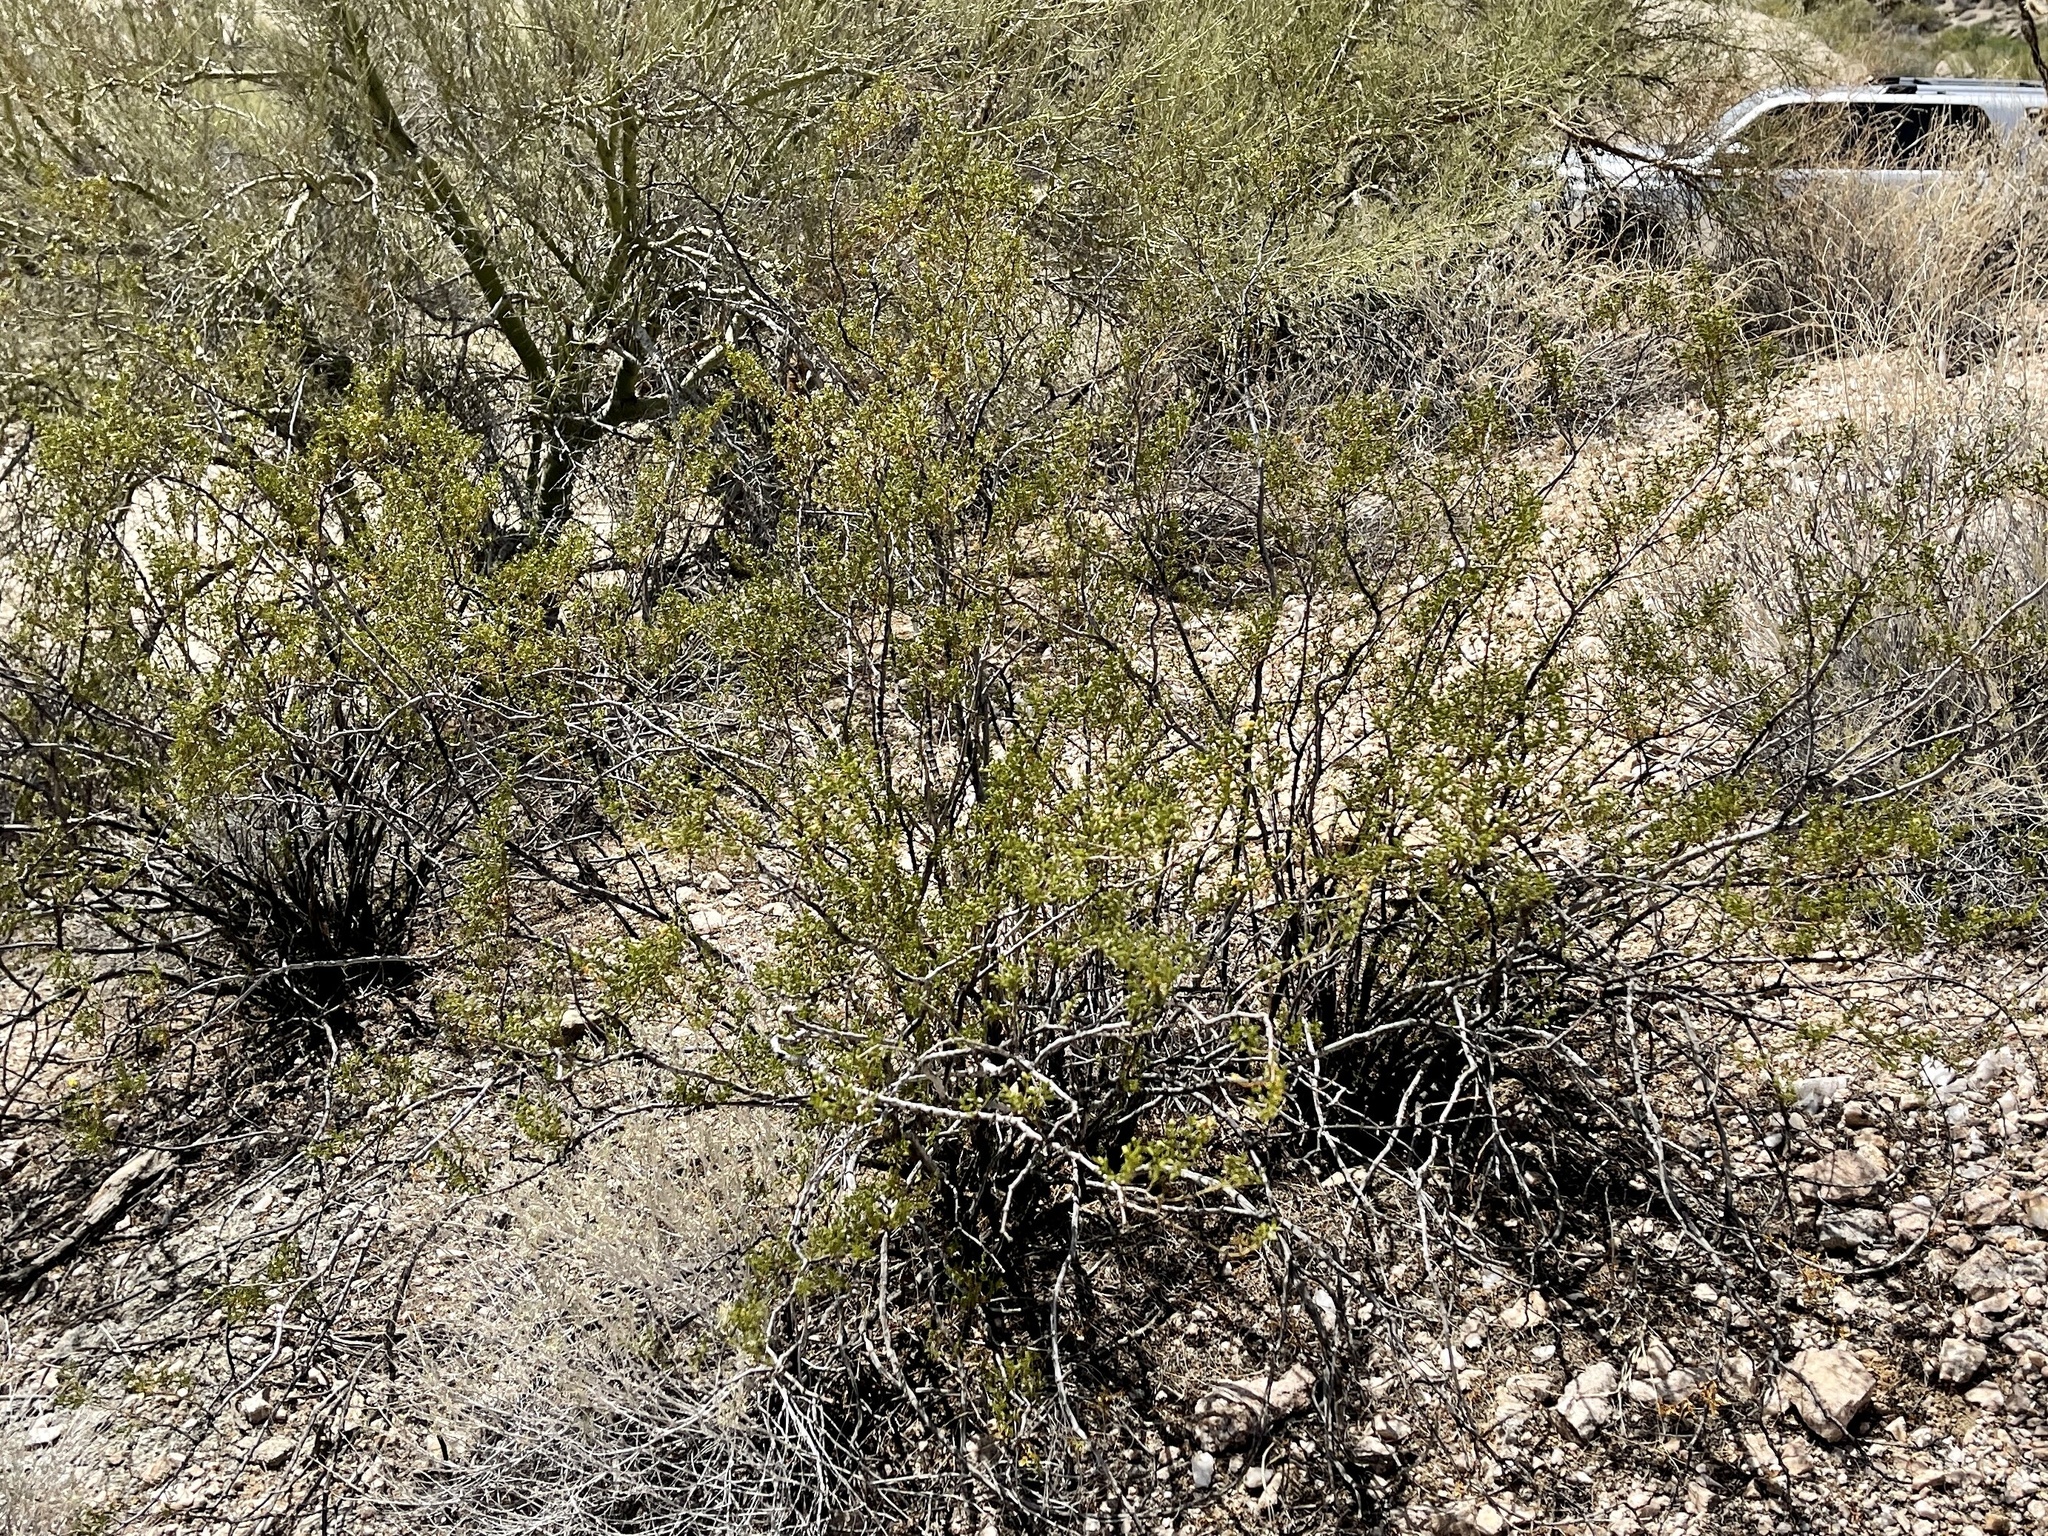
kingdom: Plantae
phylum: Tracheophyta
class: Magnoliopsida
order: Zygophyllales
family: Zygophyllaceae
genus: Larrea
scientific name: Larrea tridentata
